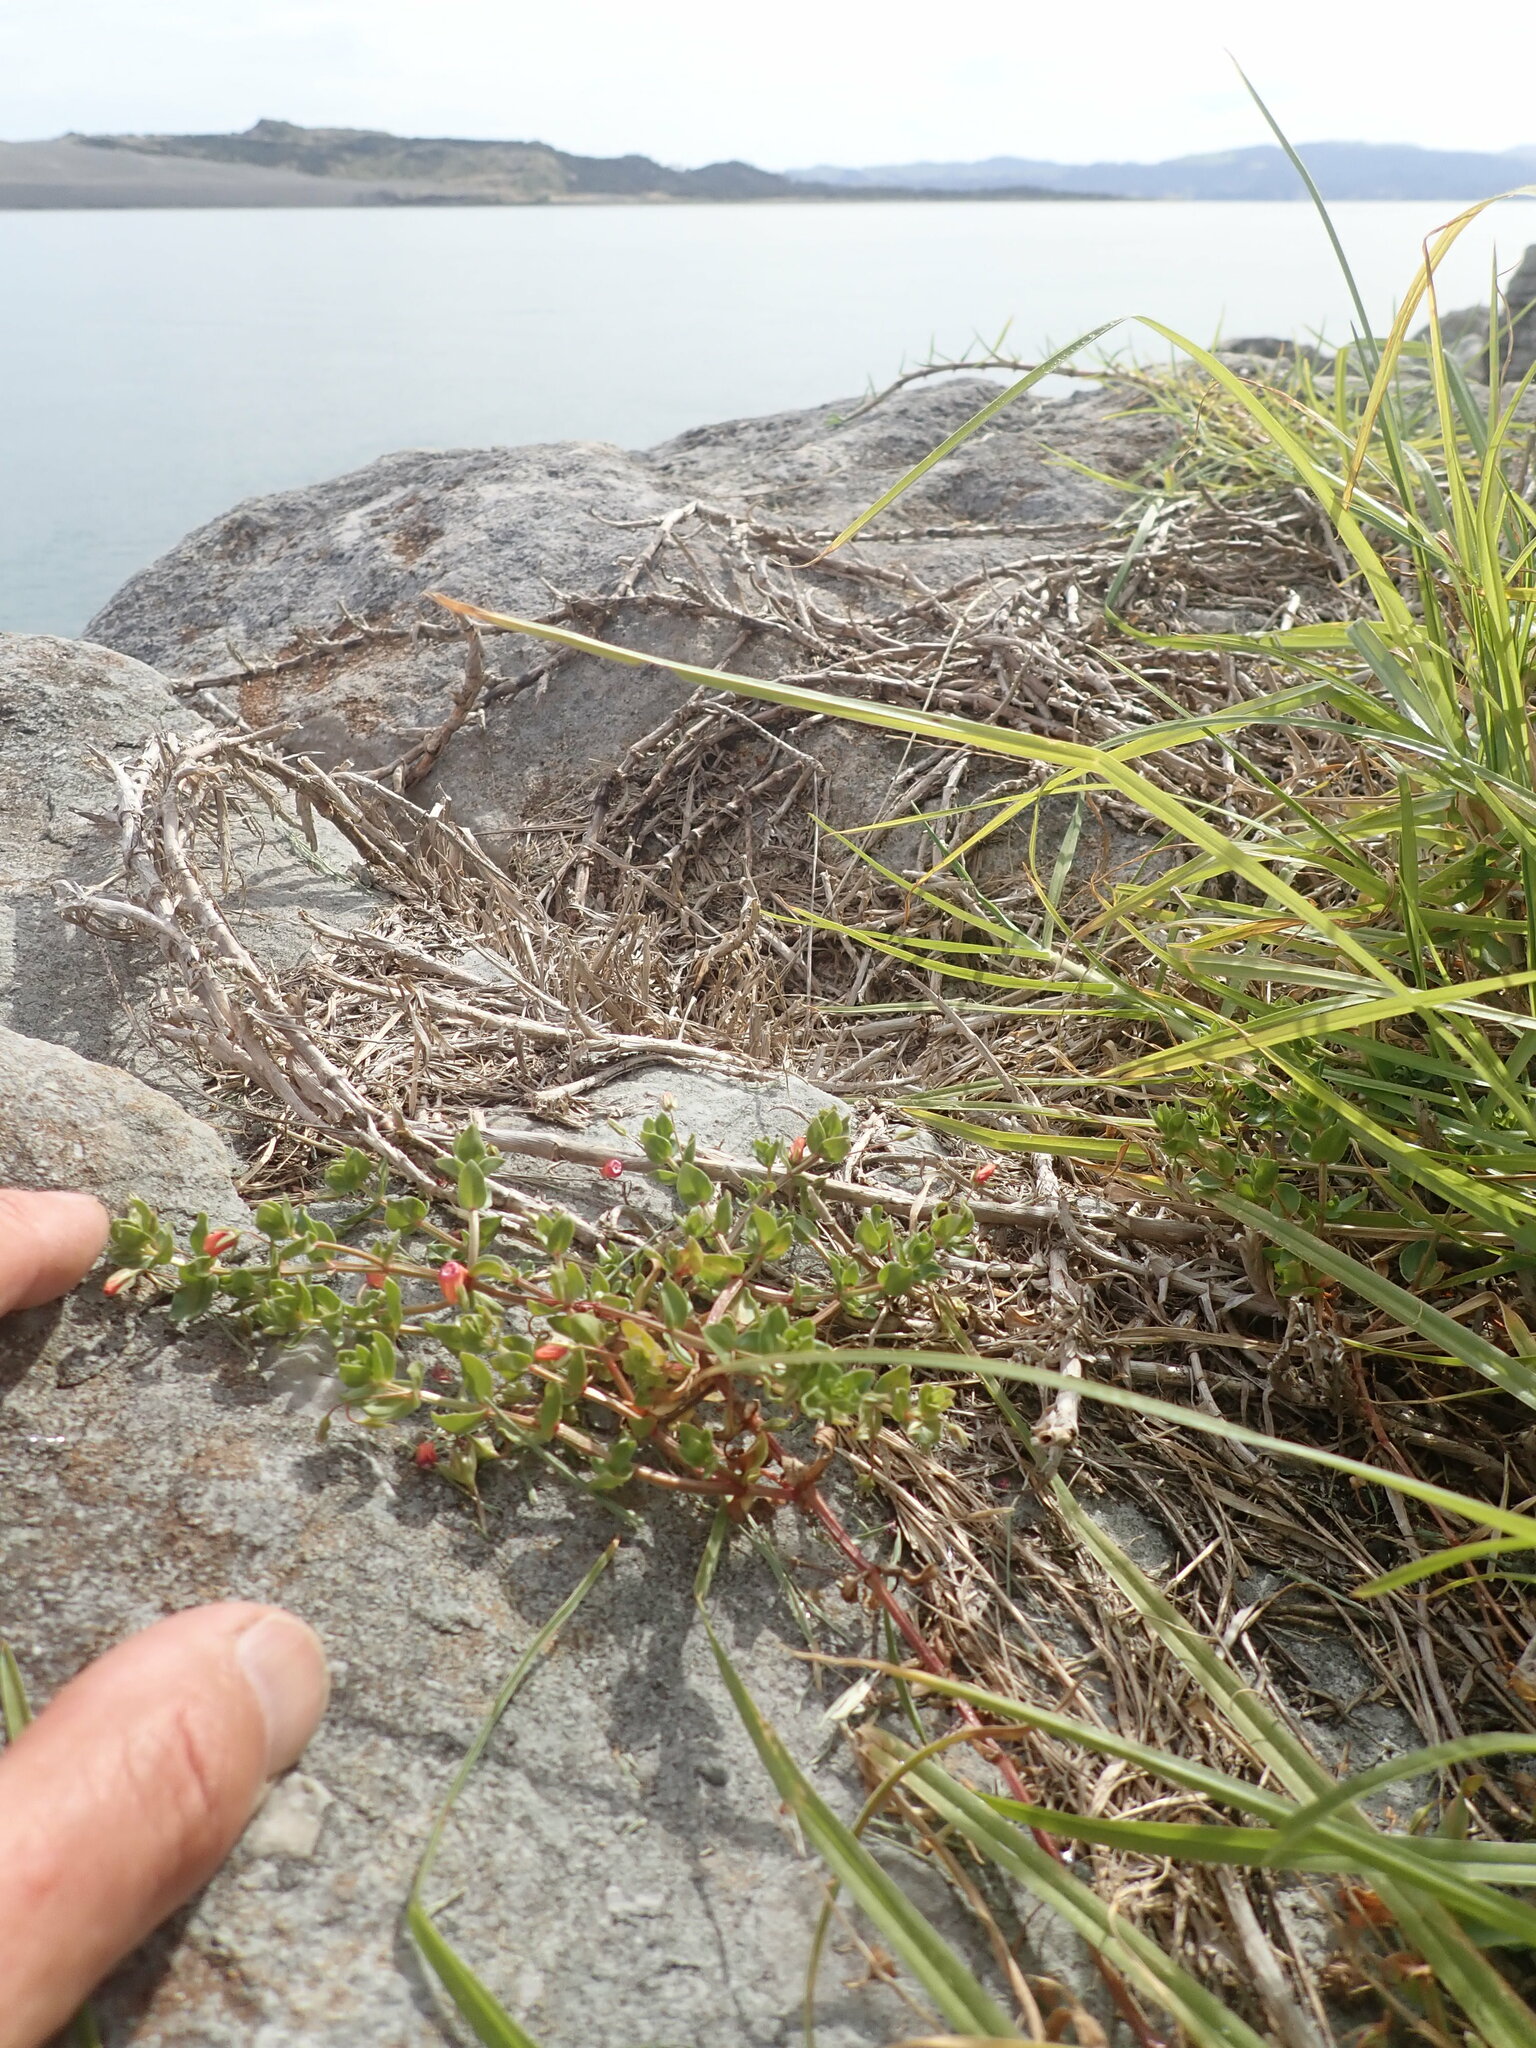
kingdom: Plantae
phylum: Tracheophyta
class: Magnoliopsida
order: Ericales
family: Primulaceae
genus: Lysimachia
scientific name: Lysimachia arvensis
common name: Scarlet pimpernel
